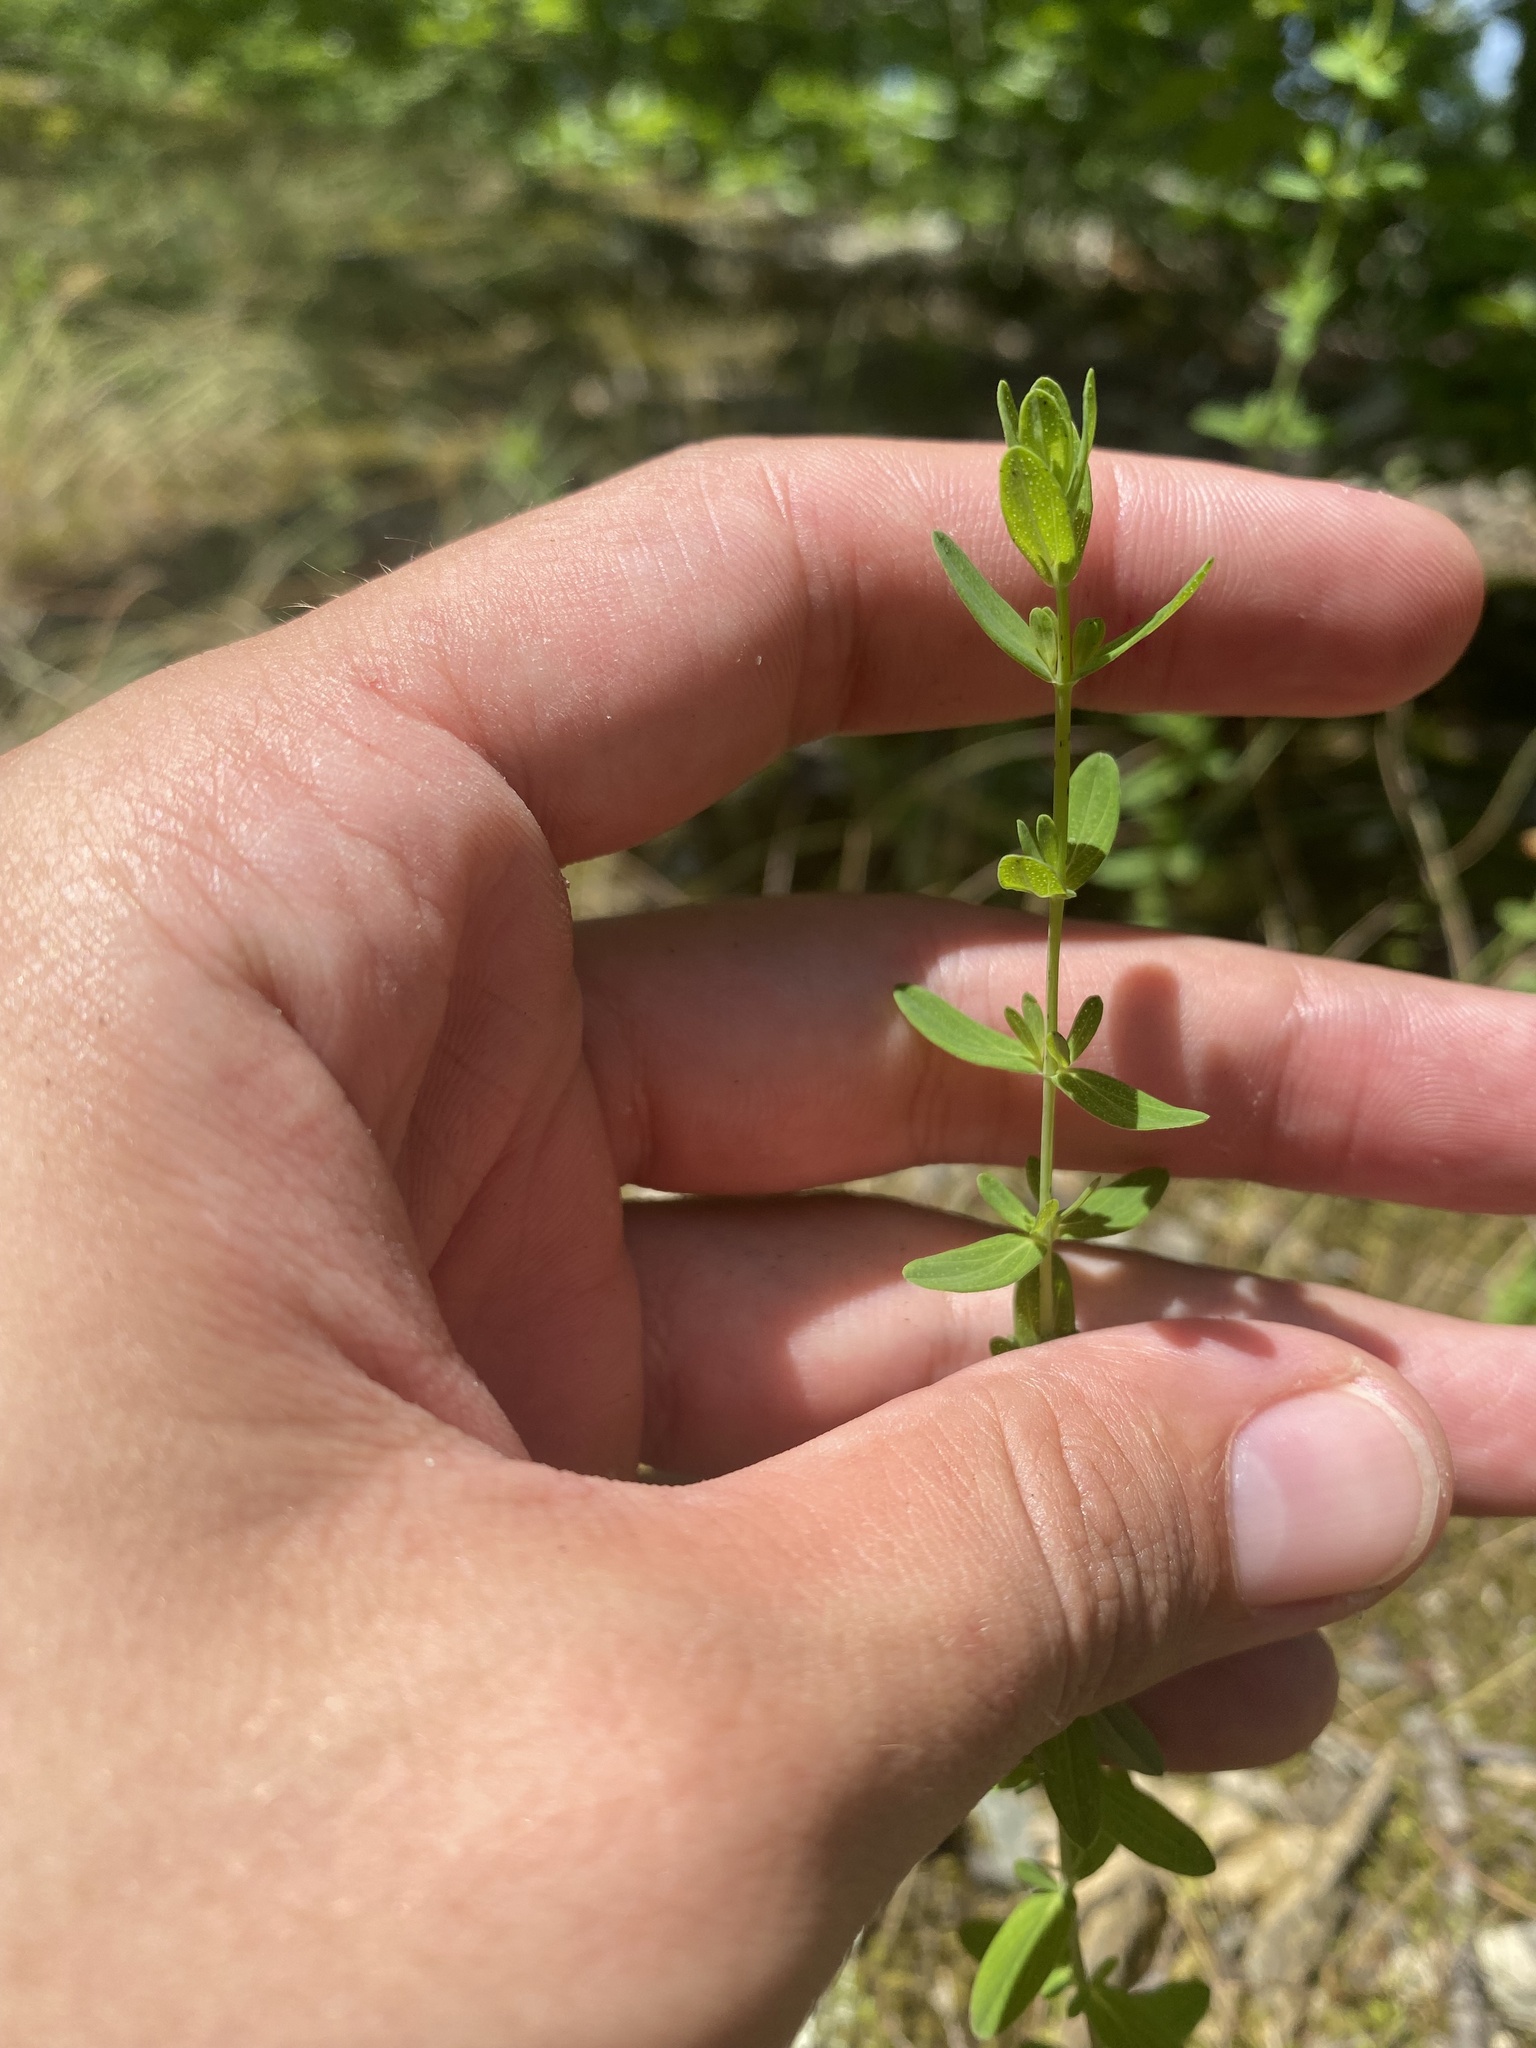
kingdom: Plantae
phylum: Tracheophyta
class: Magnoliopsida
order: Malpighiales
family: Hypericaceae
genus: Hypericum
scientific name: Hypericum perforatum
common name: Common st. johnswort
